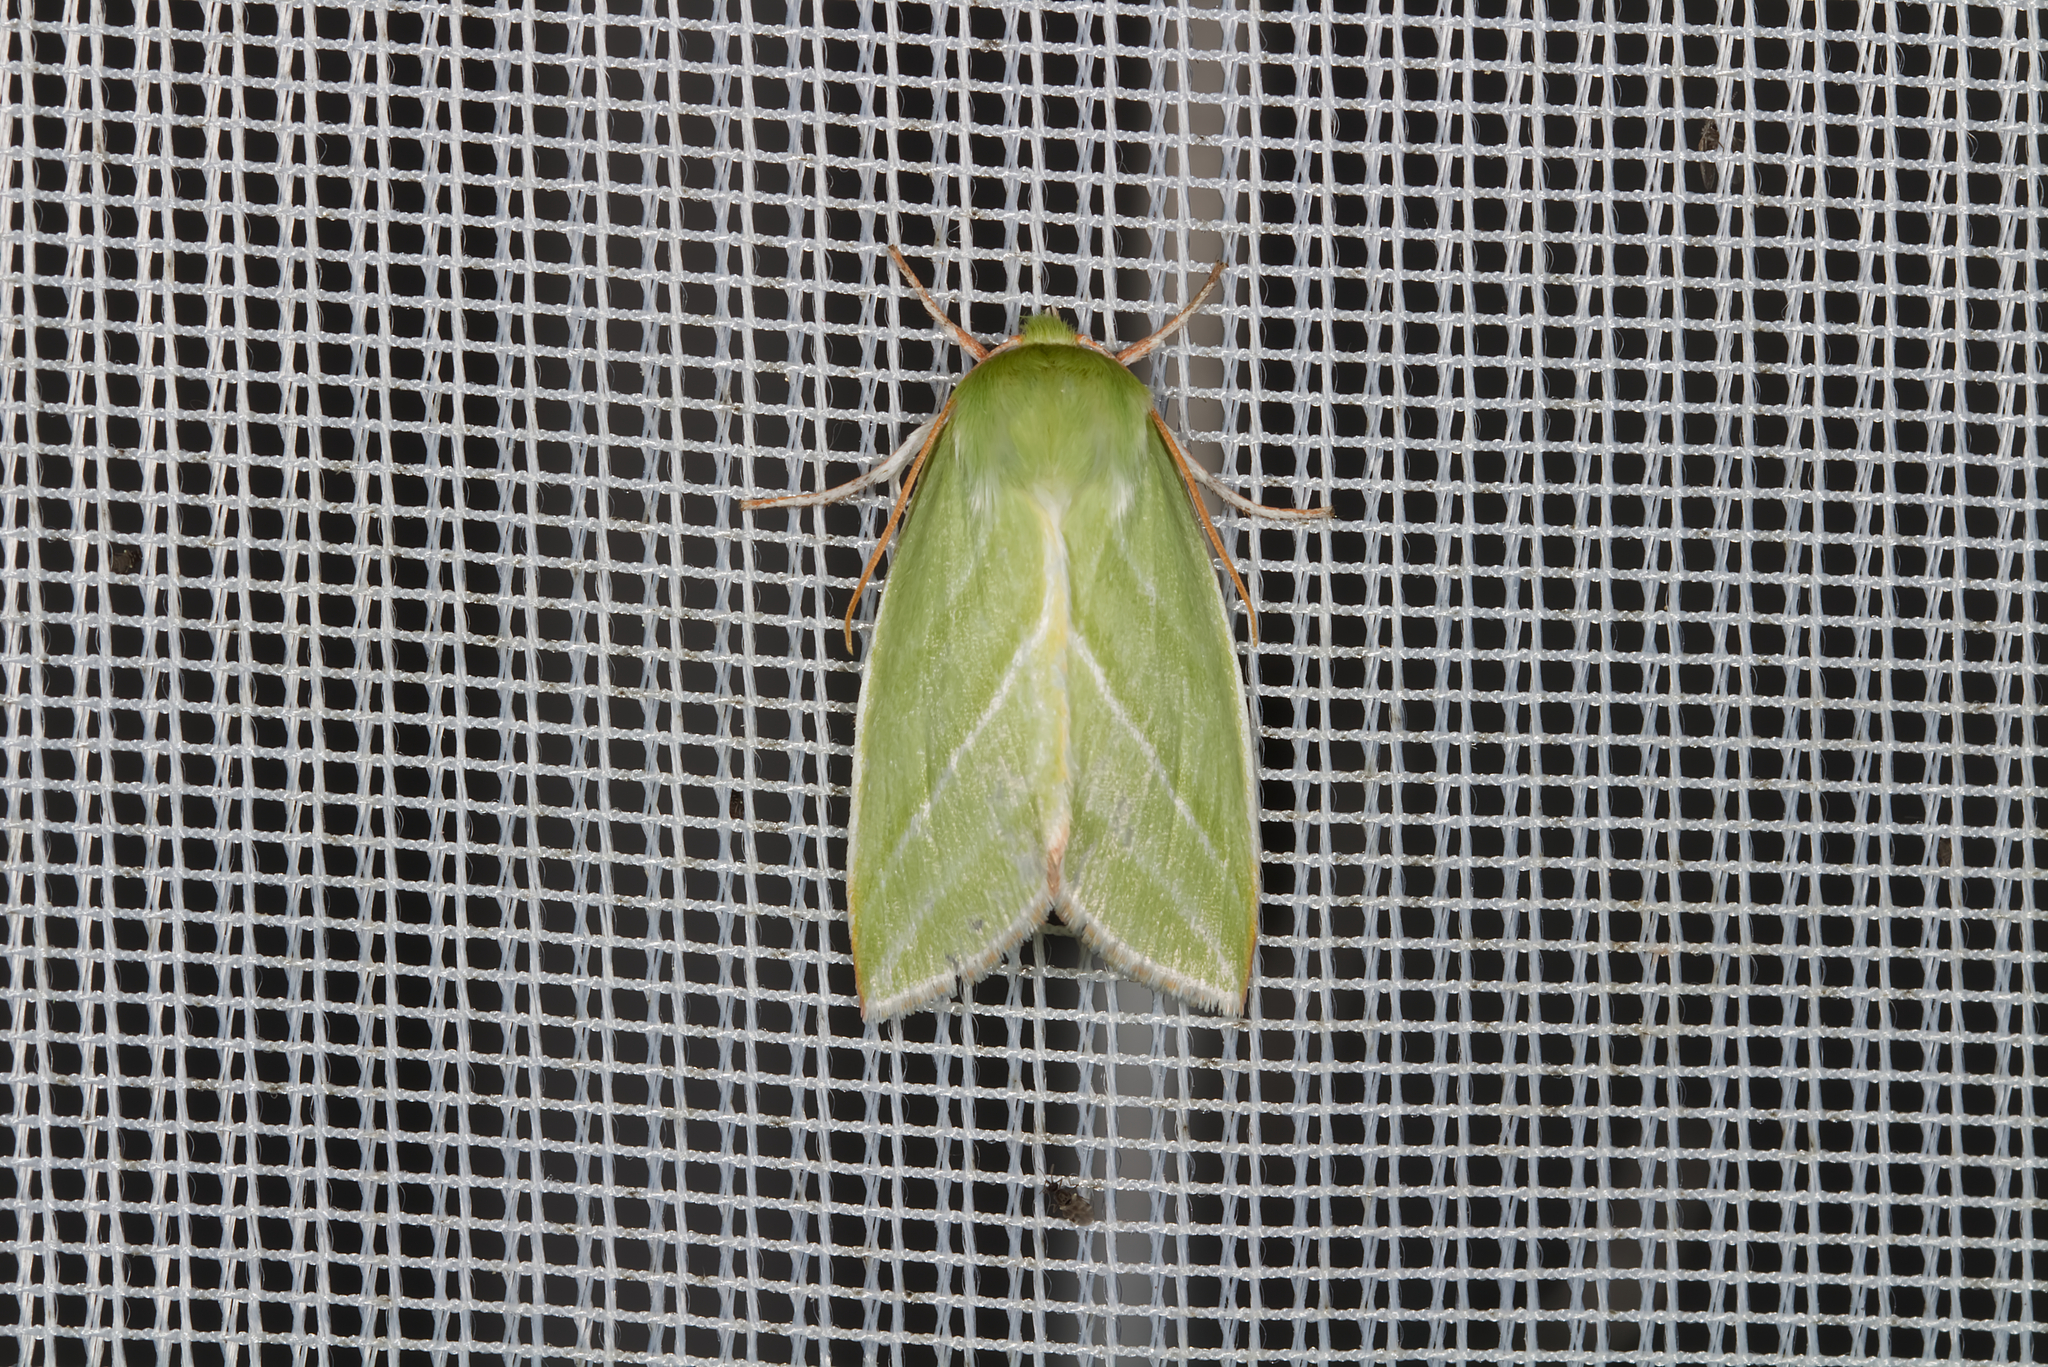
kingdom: Animalia
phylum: Arthropoda
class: Insecta
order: Lepidoptera
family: Nolidae
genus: Pseudoips
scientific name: Pseudoips prasinana
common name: Green silver-lines
